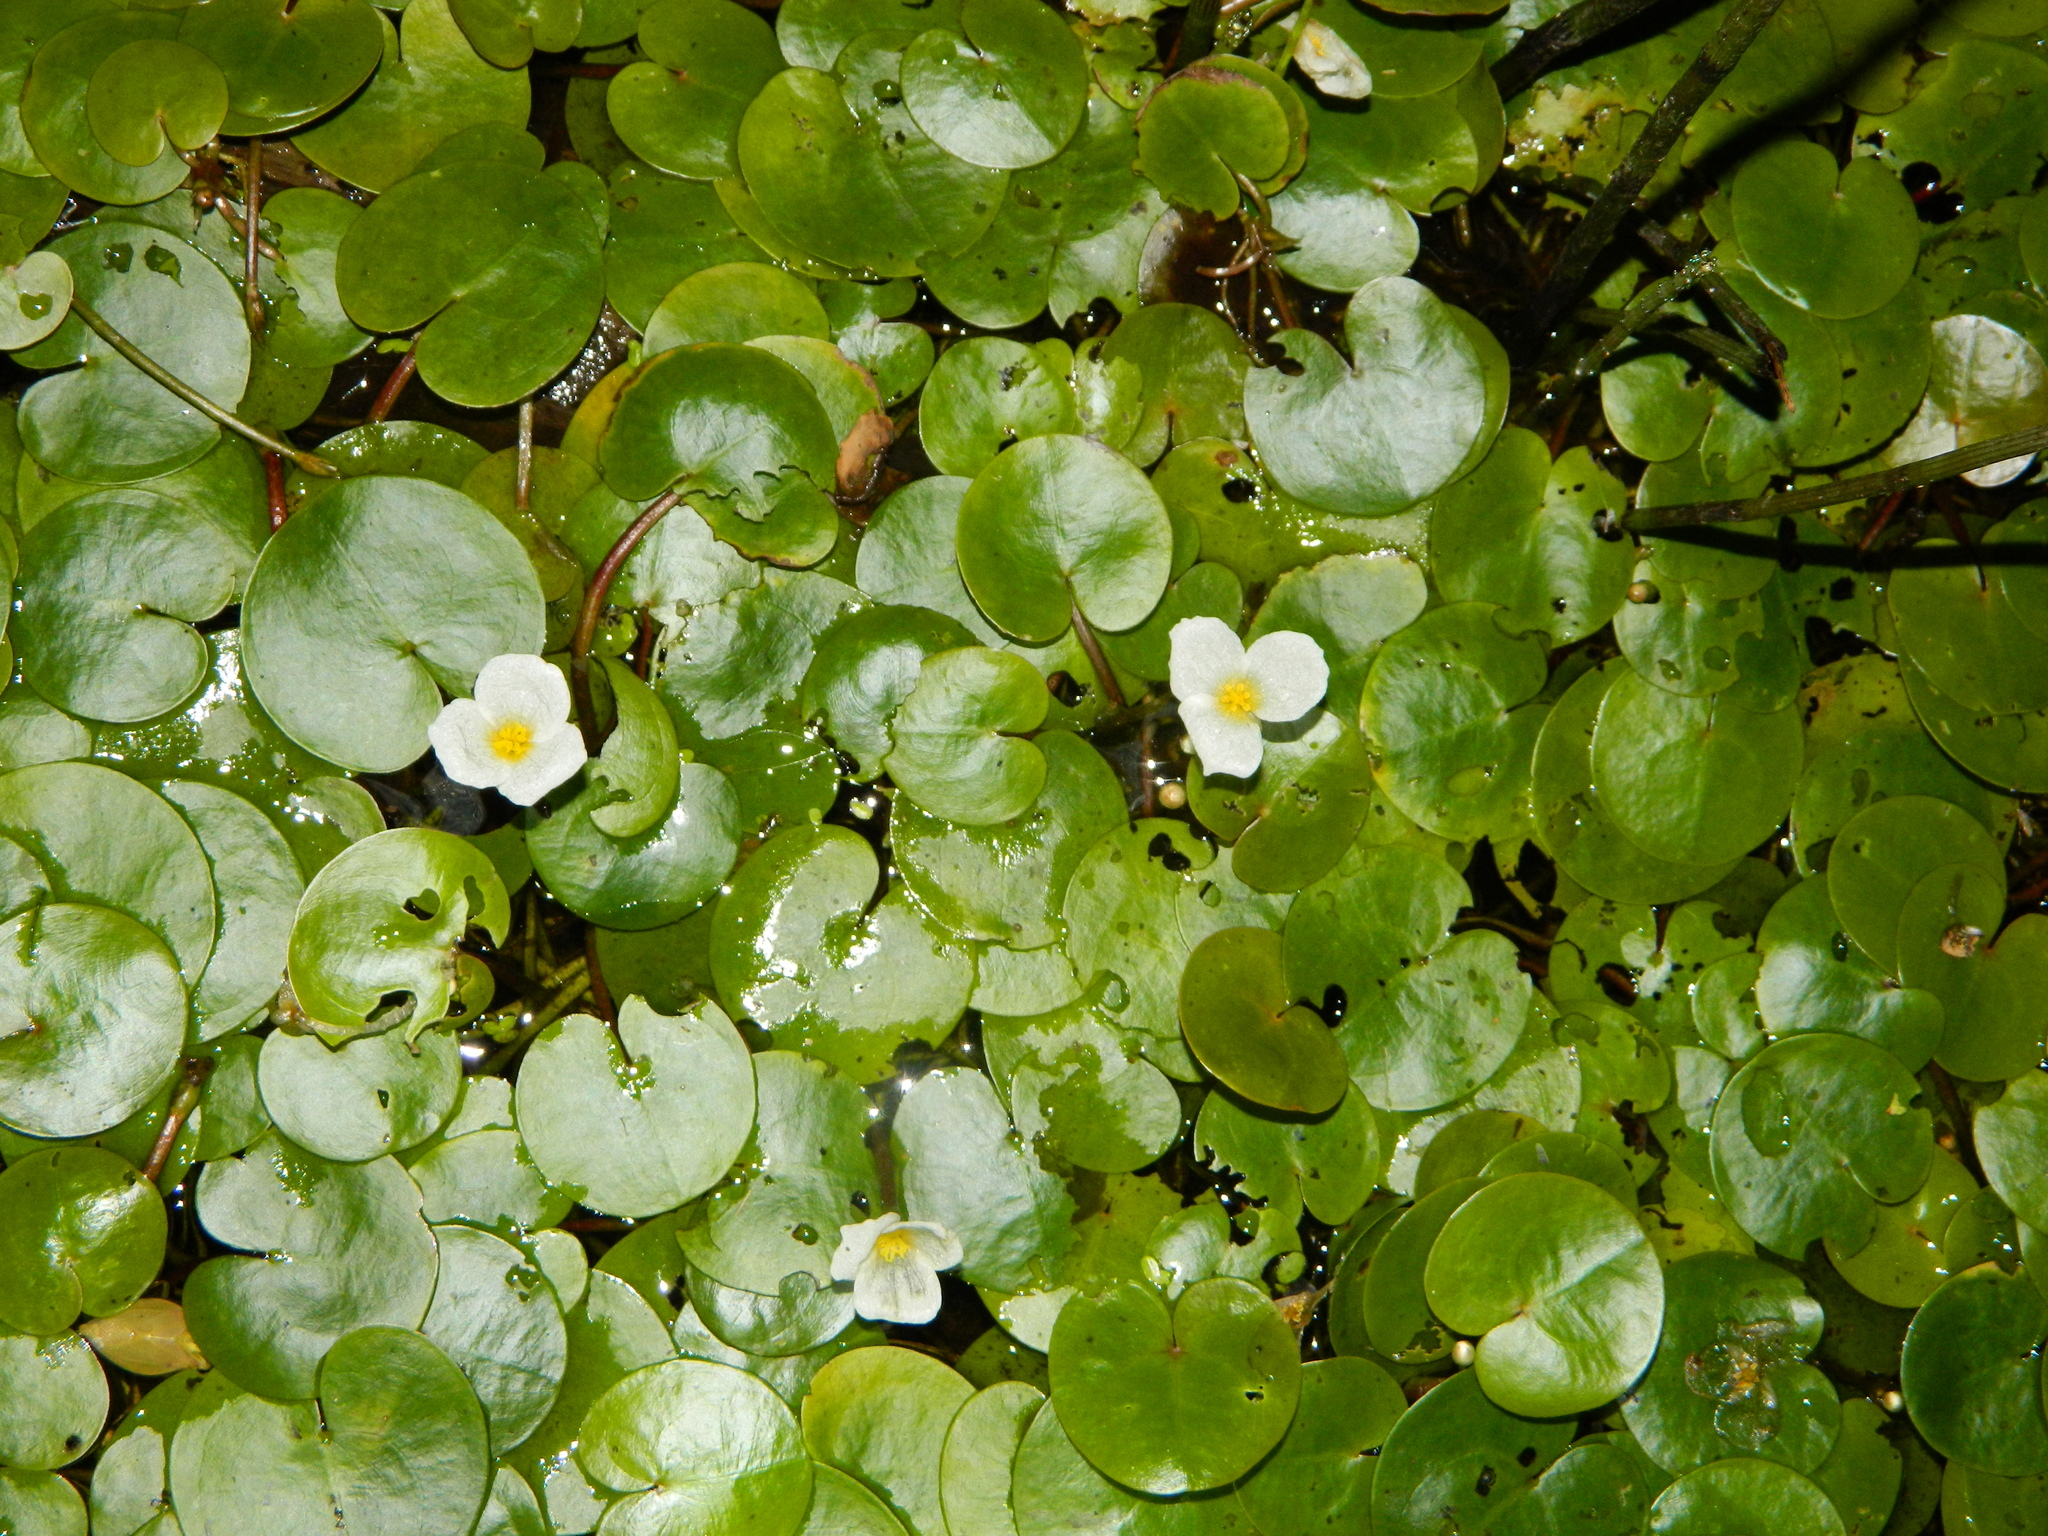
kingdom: Plantae
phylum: Tracheophyta
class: Liliopsida
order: Alismatales
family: Hydrocharitaceae
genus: Hydrocharis
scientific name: Hydrocharis morsus-ranae
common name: Frogbit
